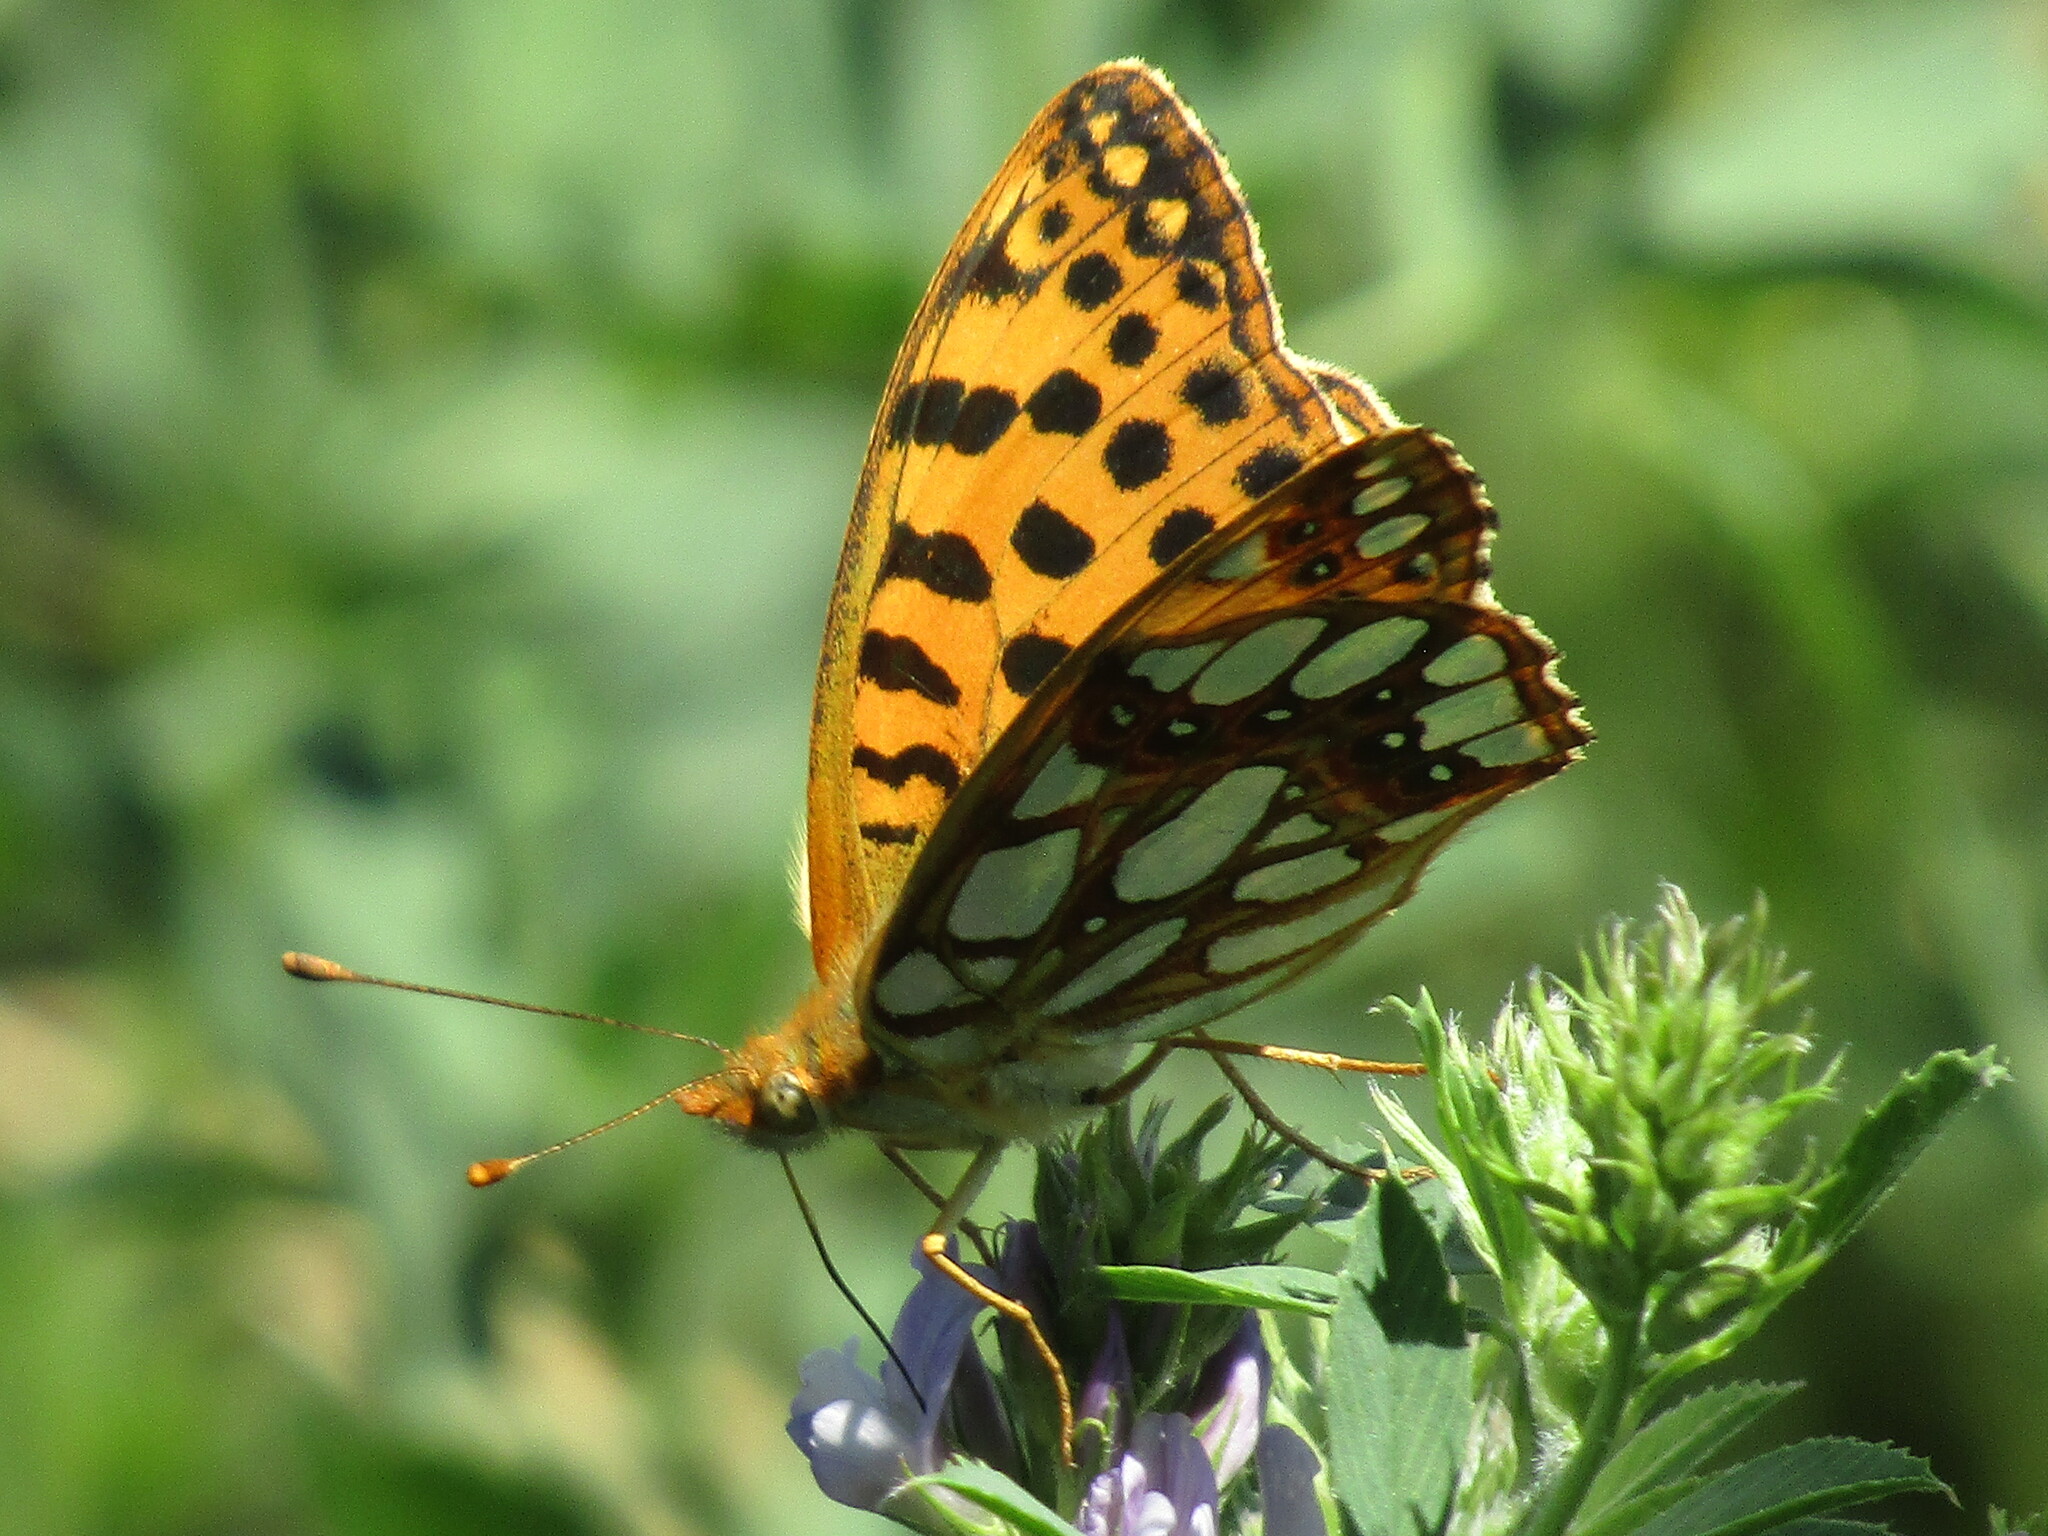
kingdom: Animalia
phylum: Arthropoda
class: Insecta
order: Lepidoptera
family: Nymphalidae
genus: Issoria
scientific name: Issoria lathonia
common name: Queen of spain fritillary
